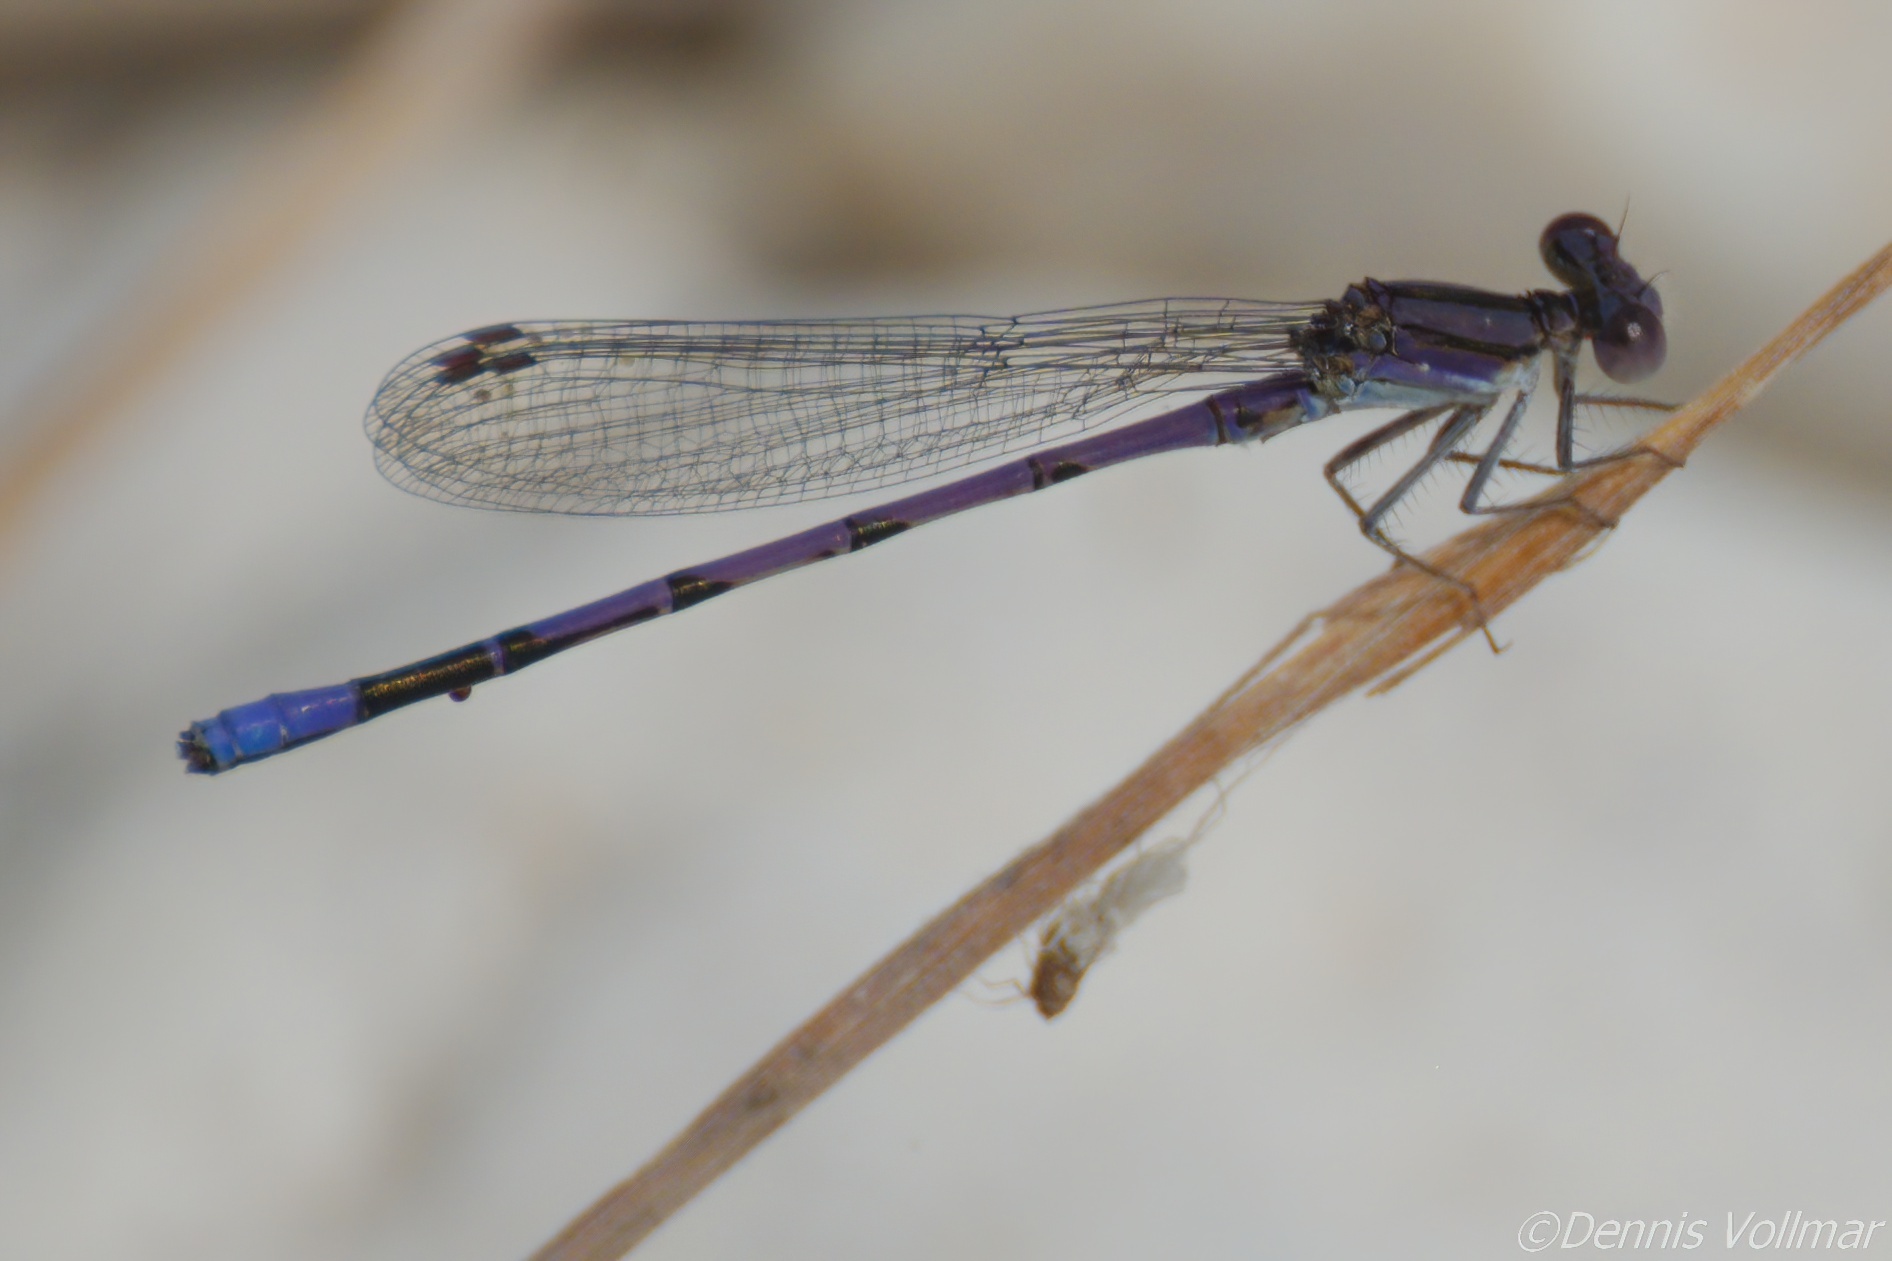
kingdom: Animalia
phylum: Arthropoda
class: Insecta
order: Odonata
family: Coenagrionidae
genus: Argia
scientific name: Argia fumipennis
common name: Variable dancer
